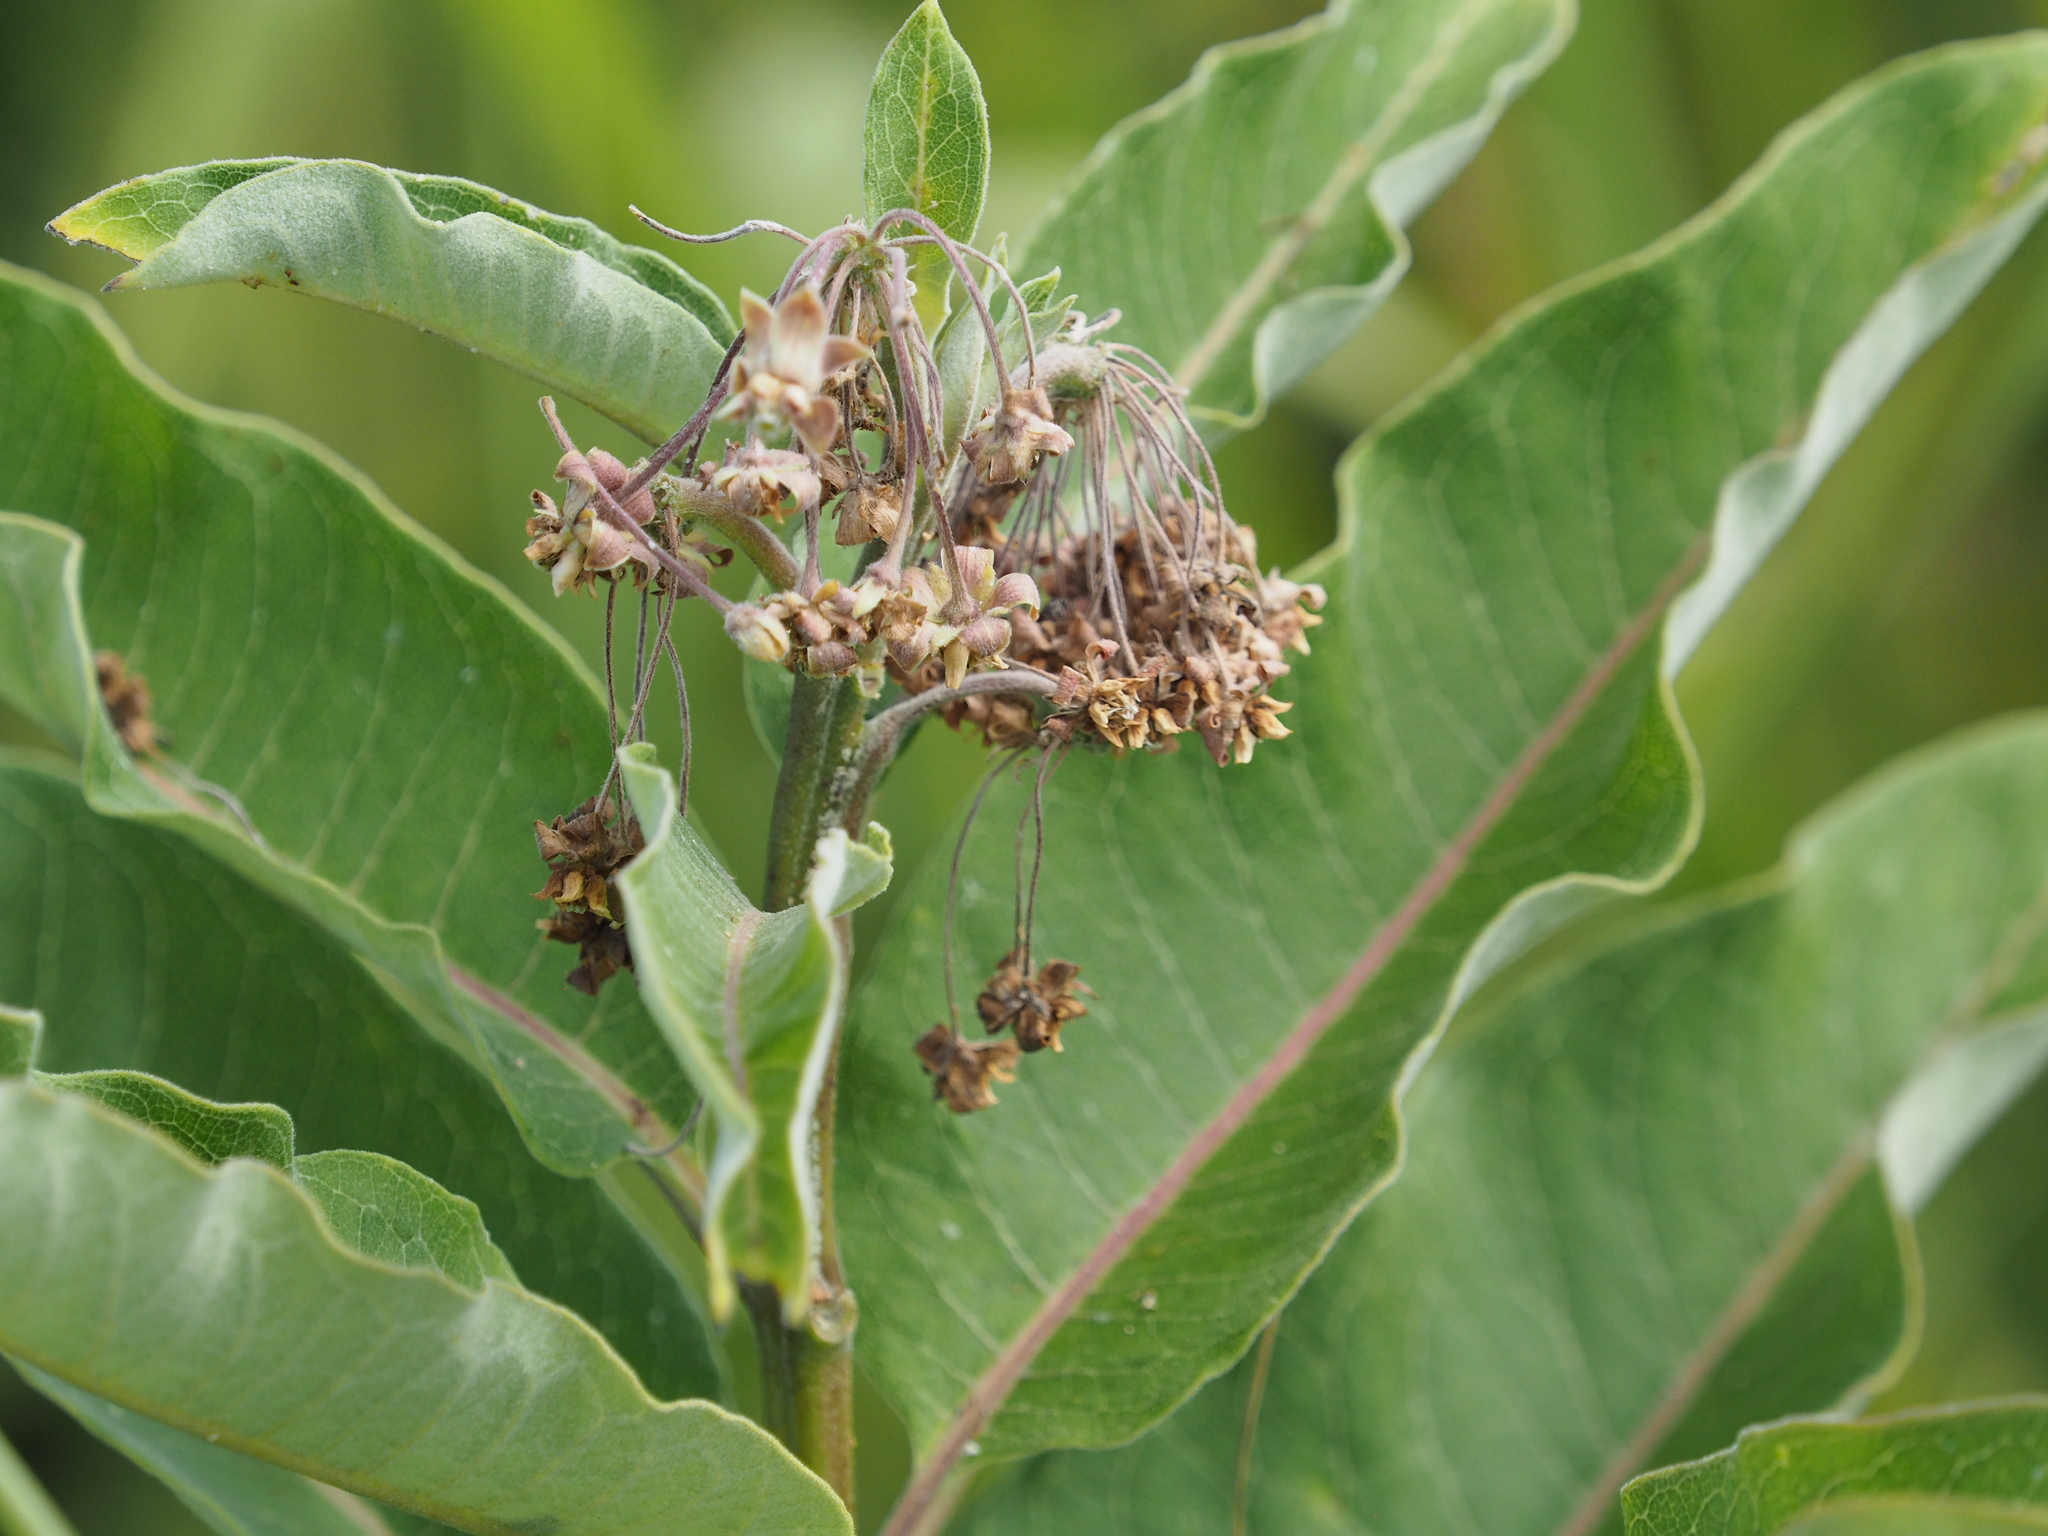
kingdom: Plantae
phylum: Tracheophyta
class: Magnoliopsida
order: Gentianales
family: Apocynaceae
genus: Asclepias
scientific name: Asclepias syriaca
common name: Common milkweed
